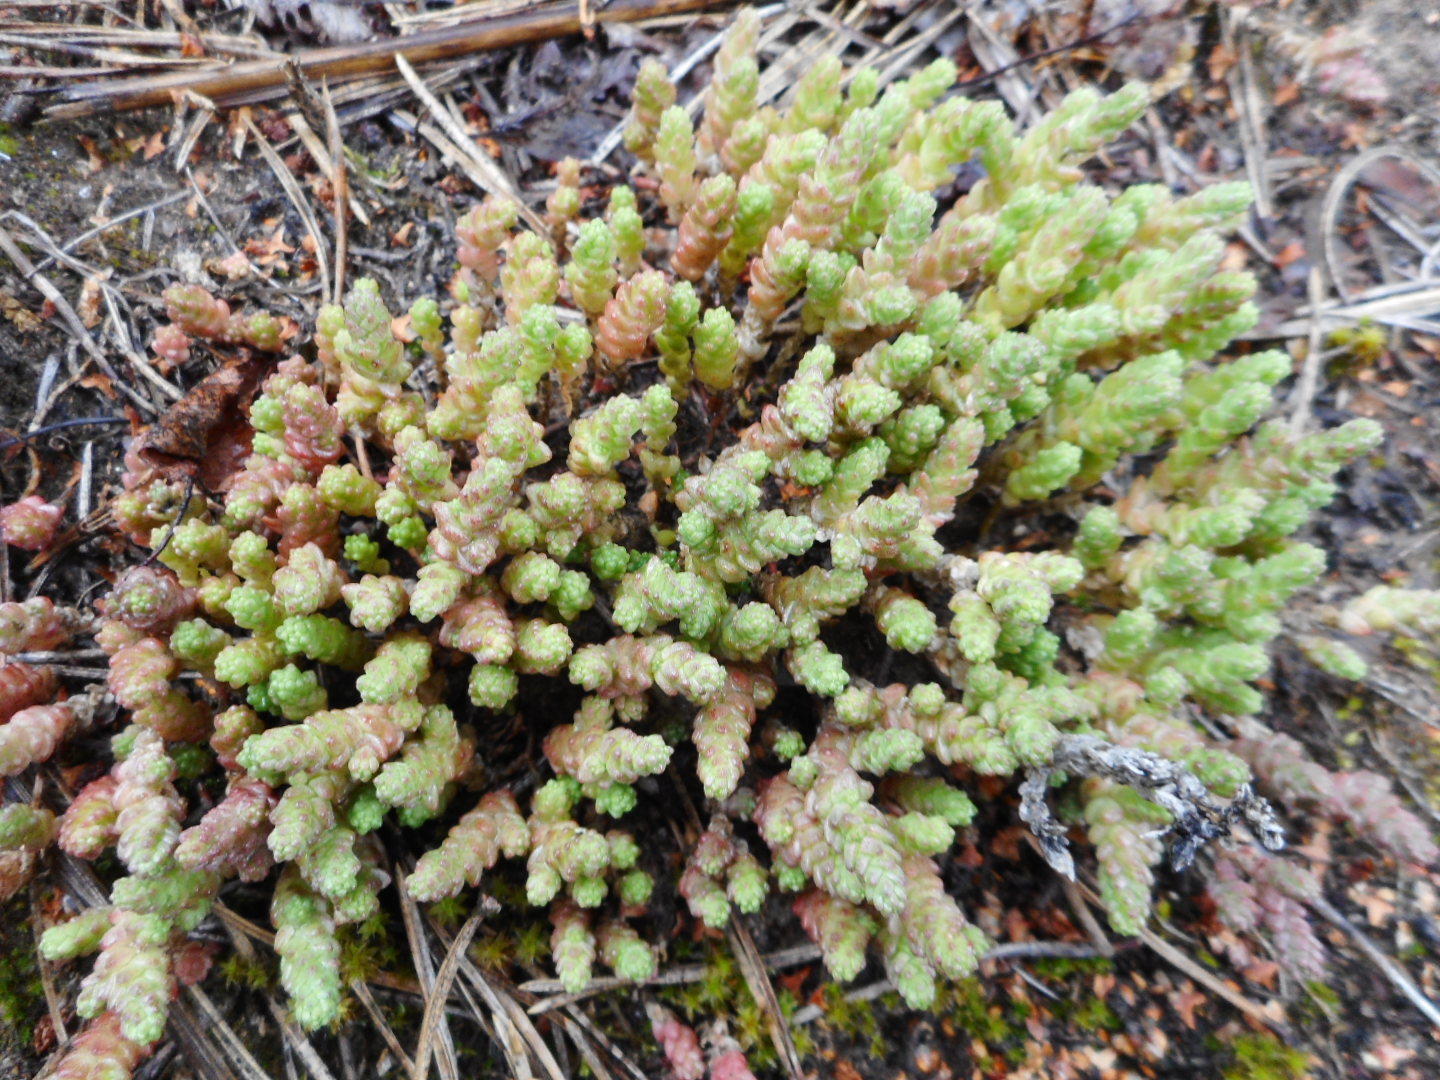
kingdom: Plantae
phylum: Tracheophyta
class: Magnoliopsida
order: Saxifragales
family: Crassulaceae
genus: Sedum
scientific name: Sedum acre
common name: Biting stonecrop
